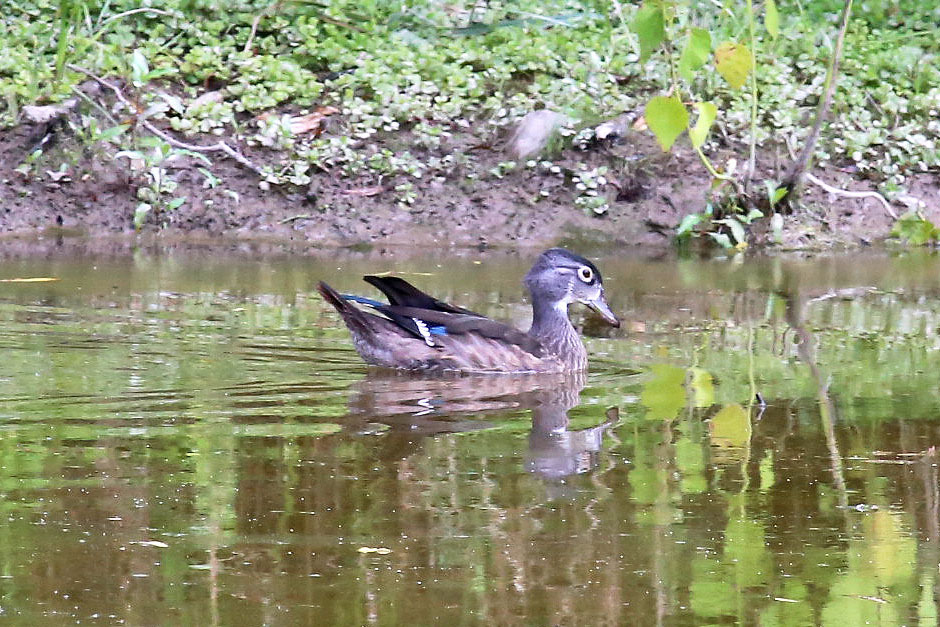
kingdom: Animalia
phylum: Chordata
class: Aves
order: Anseriformes
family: Anatidae
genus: Aix
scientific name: Aix sponsa
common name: Wood duck
